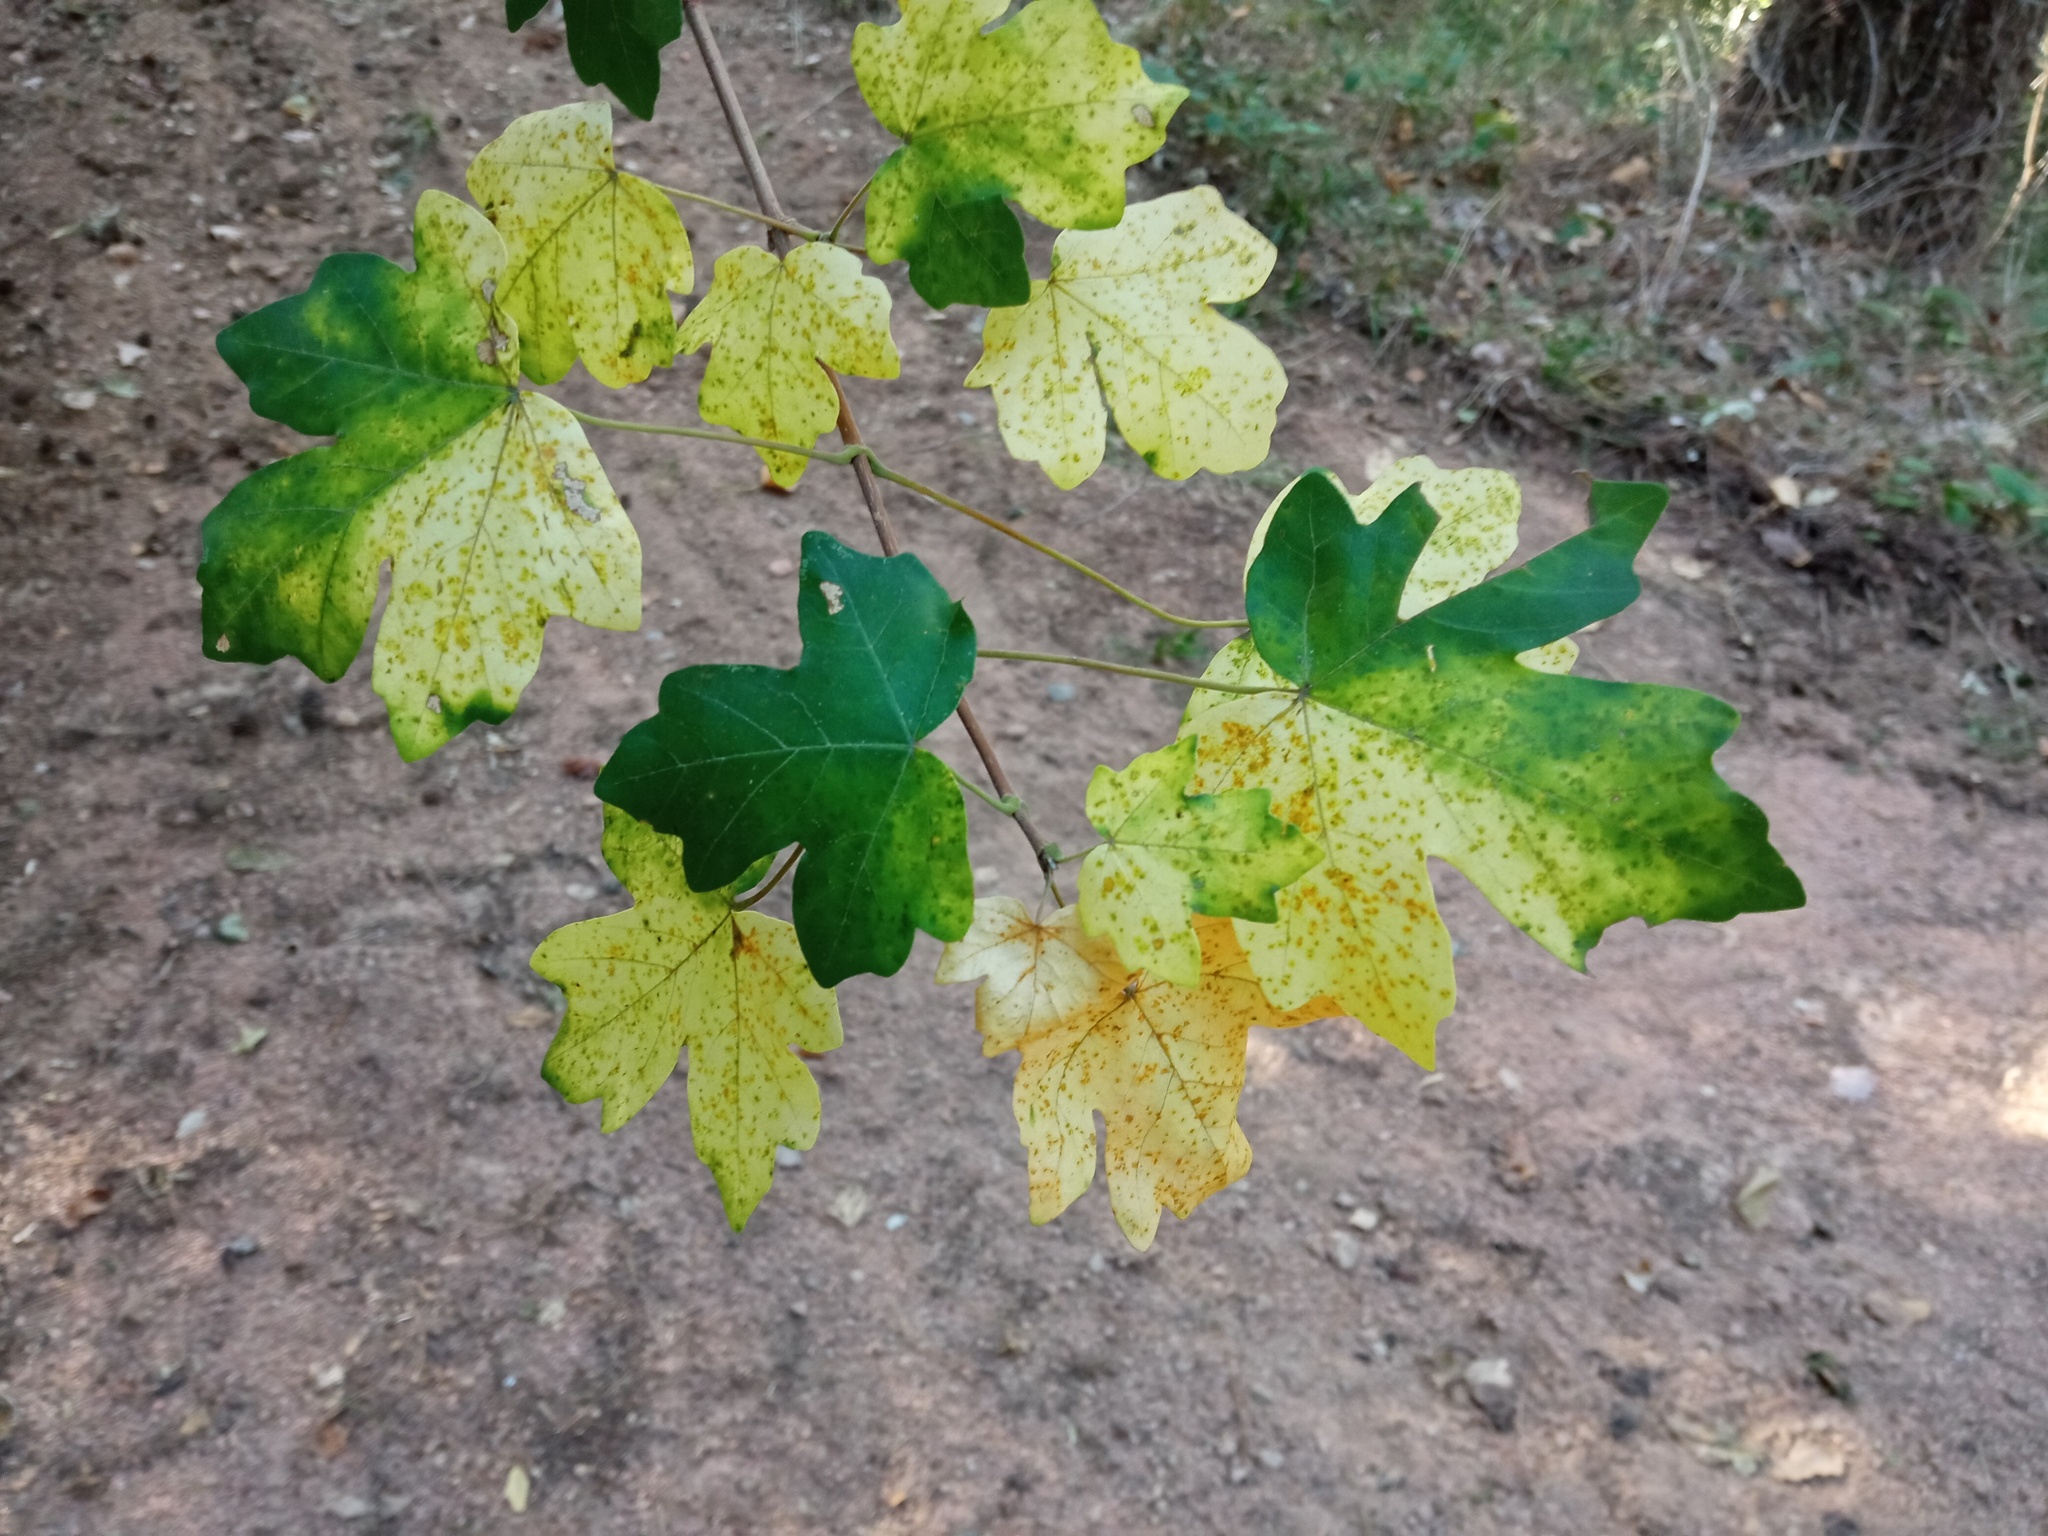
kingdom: Plantae
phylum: Tracheophyta
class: Magnoliopsida
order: Sapindales
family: Sapindaceae
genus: Acer
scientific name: Acer campestre
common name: Field maple
